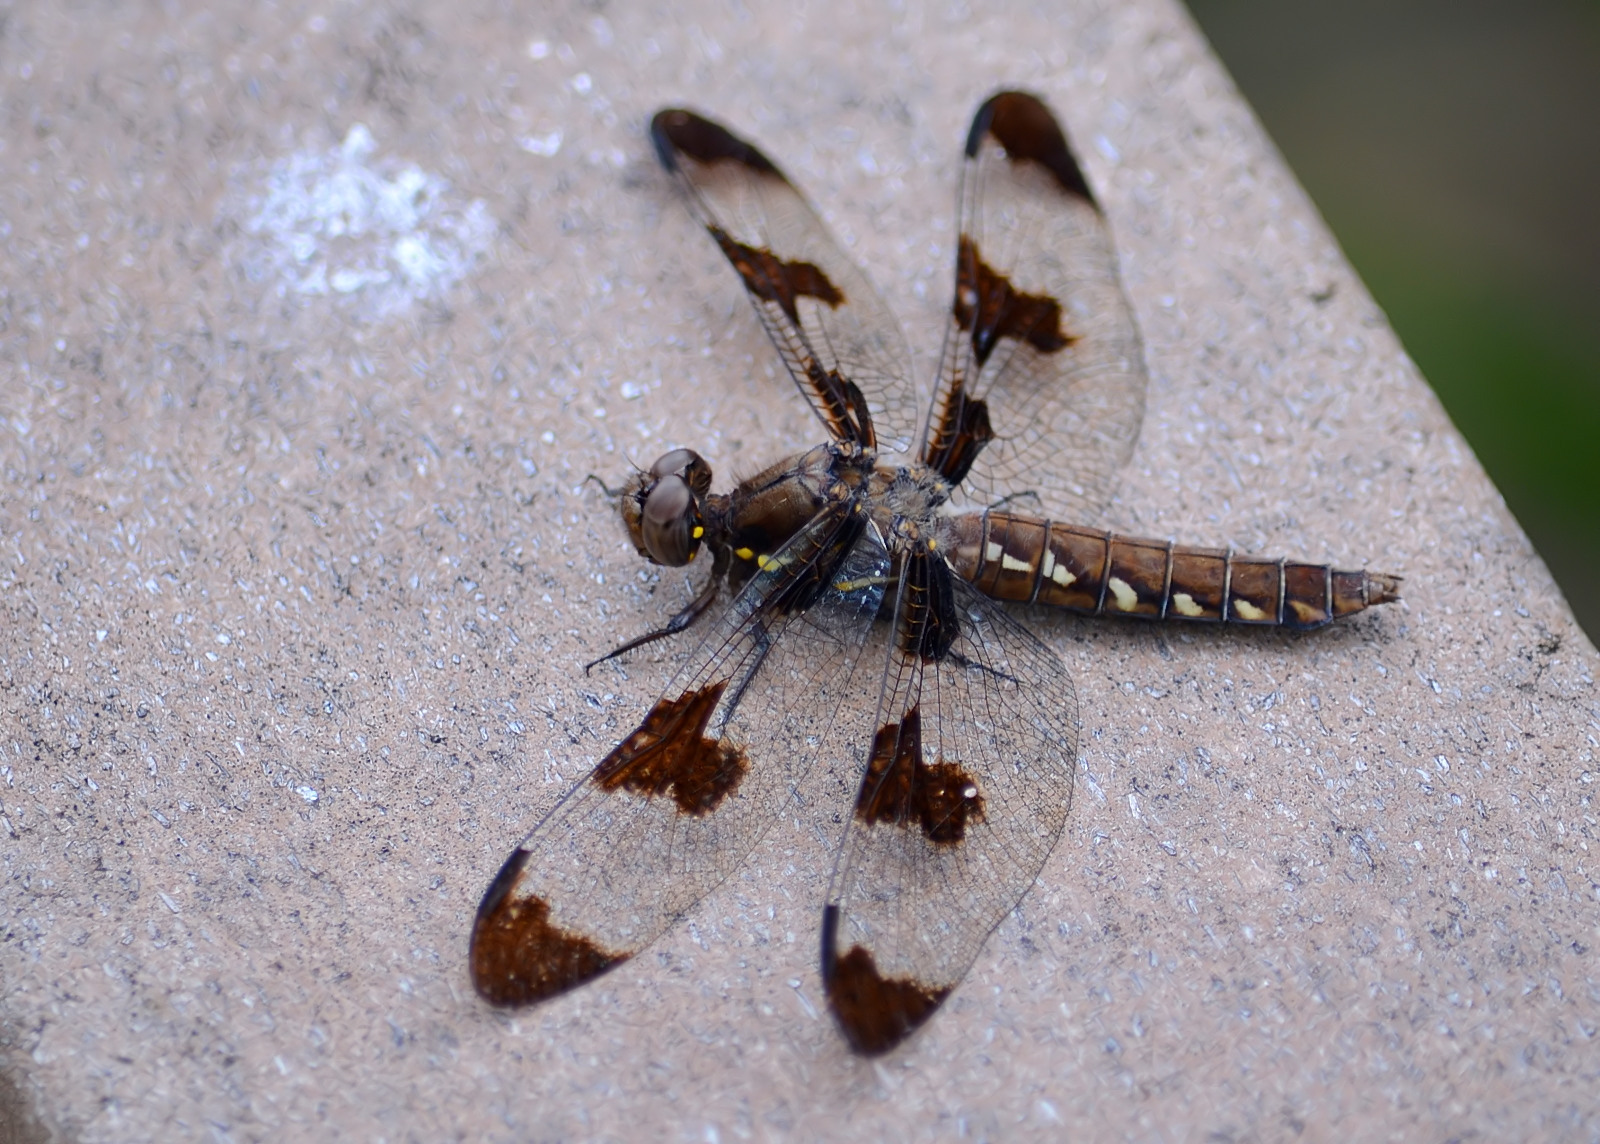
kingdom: Animalia
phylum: Arthropoda
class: Insecta
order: Odonata
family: Libellulidae
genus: Plathemis
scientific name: Plathemis lydia
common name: Common whitetail
